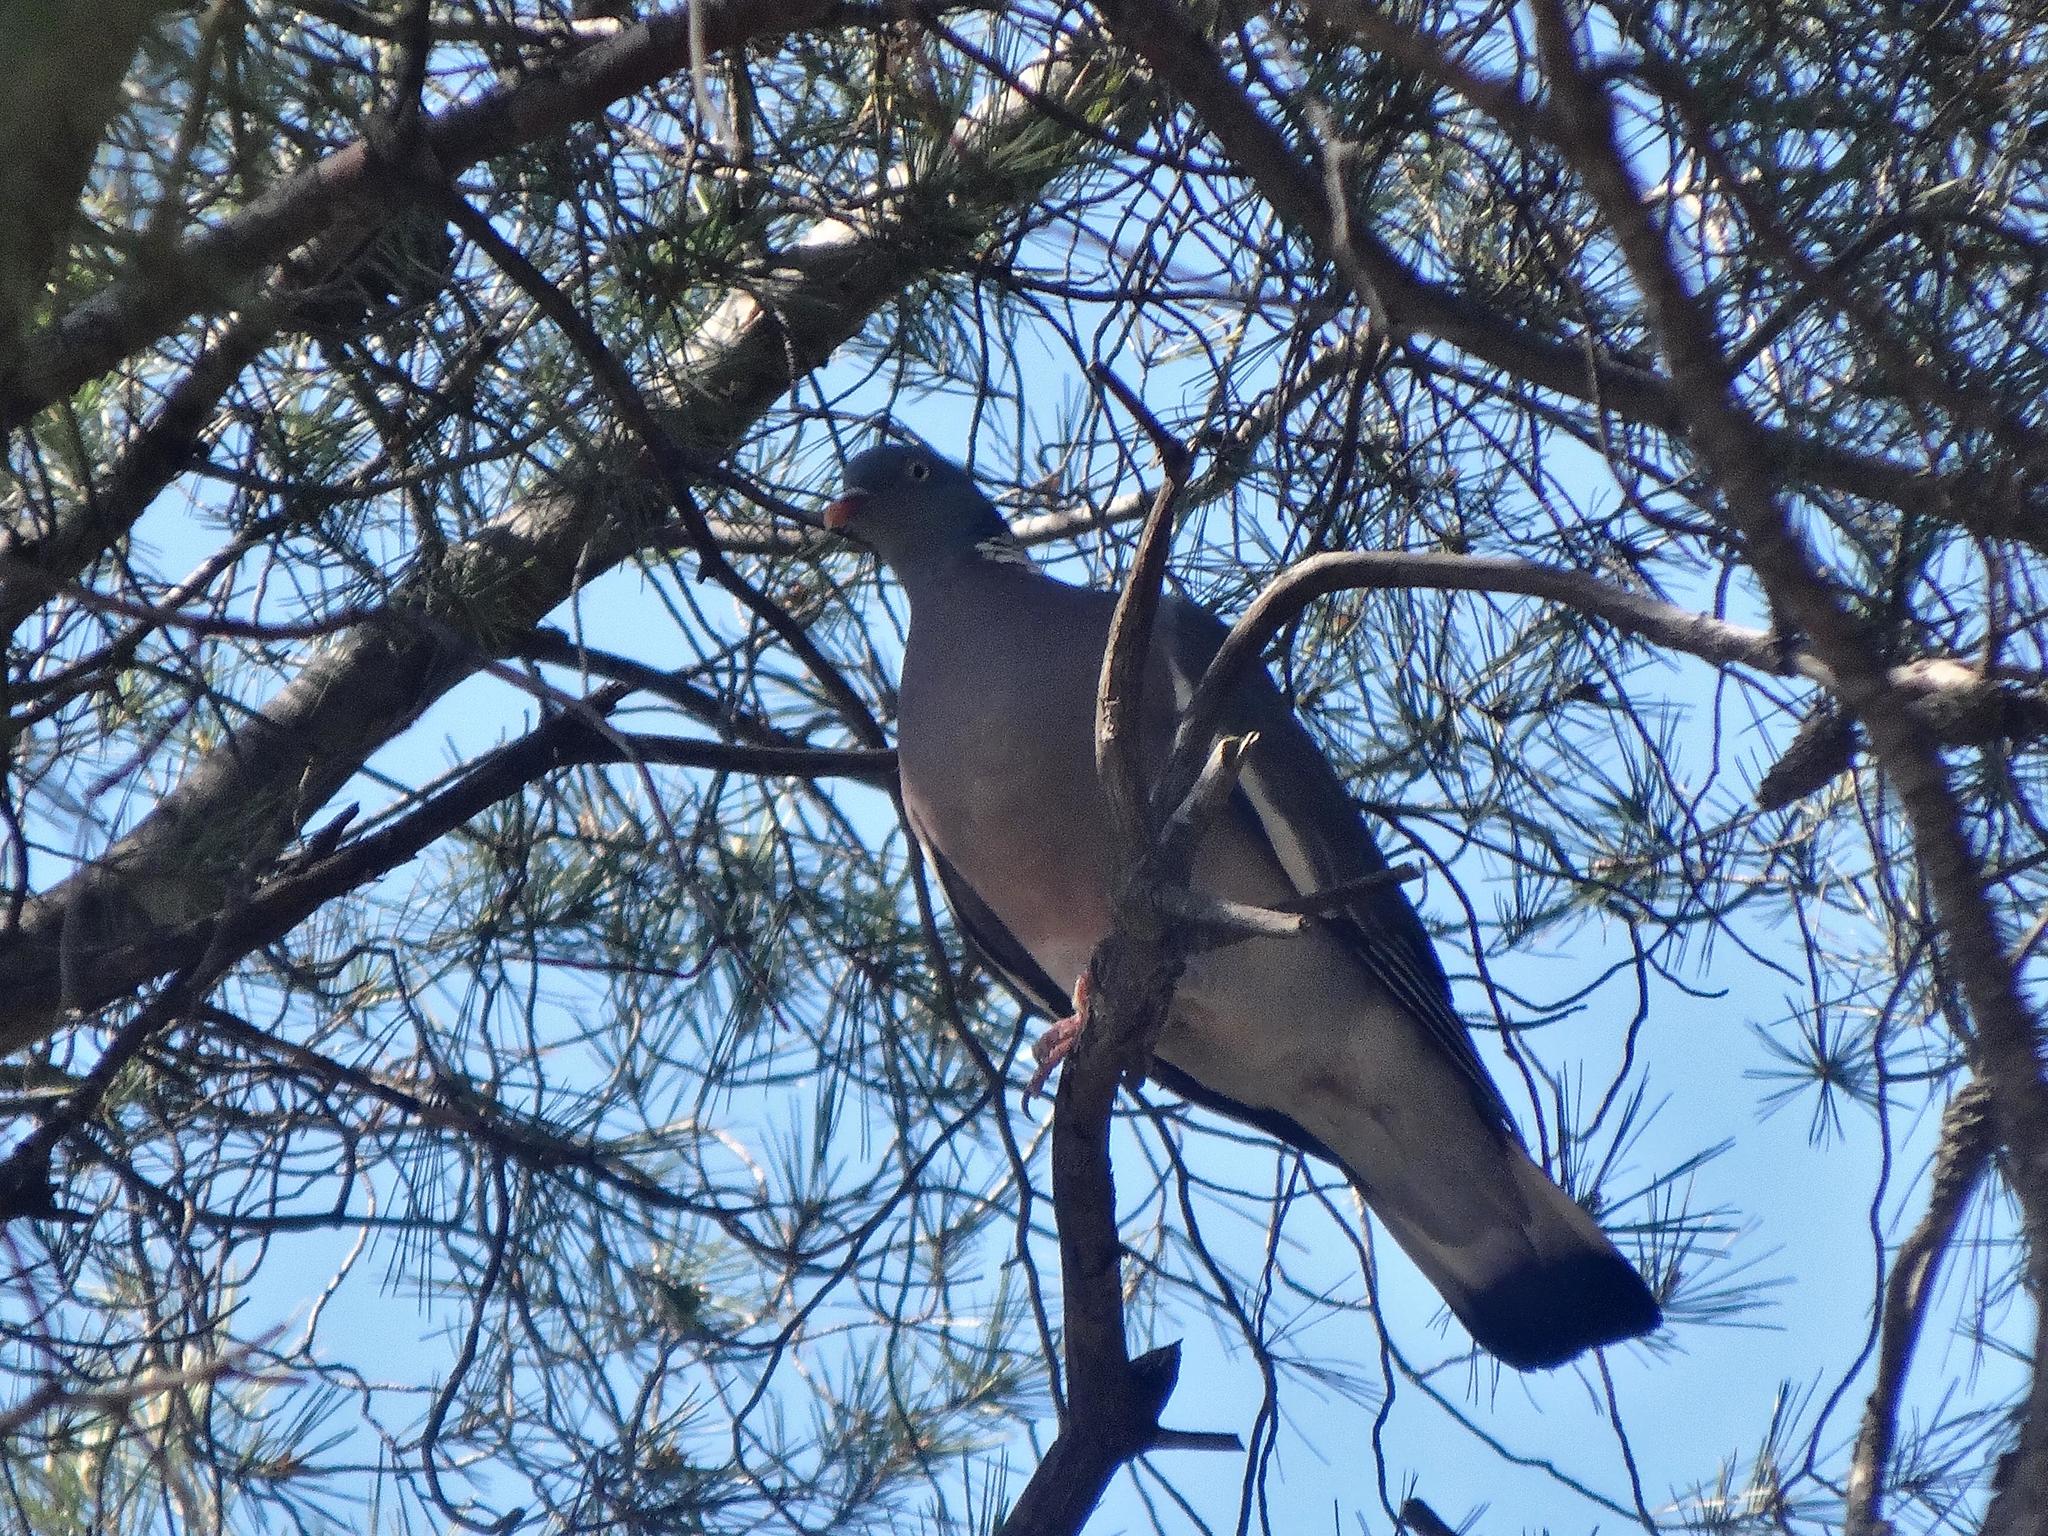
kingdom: Animalia
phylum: Chordata
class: Aves
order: Columbiformes
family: Columbidae
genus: Columba
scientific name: Columba palumbus
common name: Common wood pigeon
